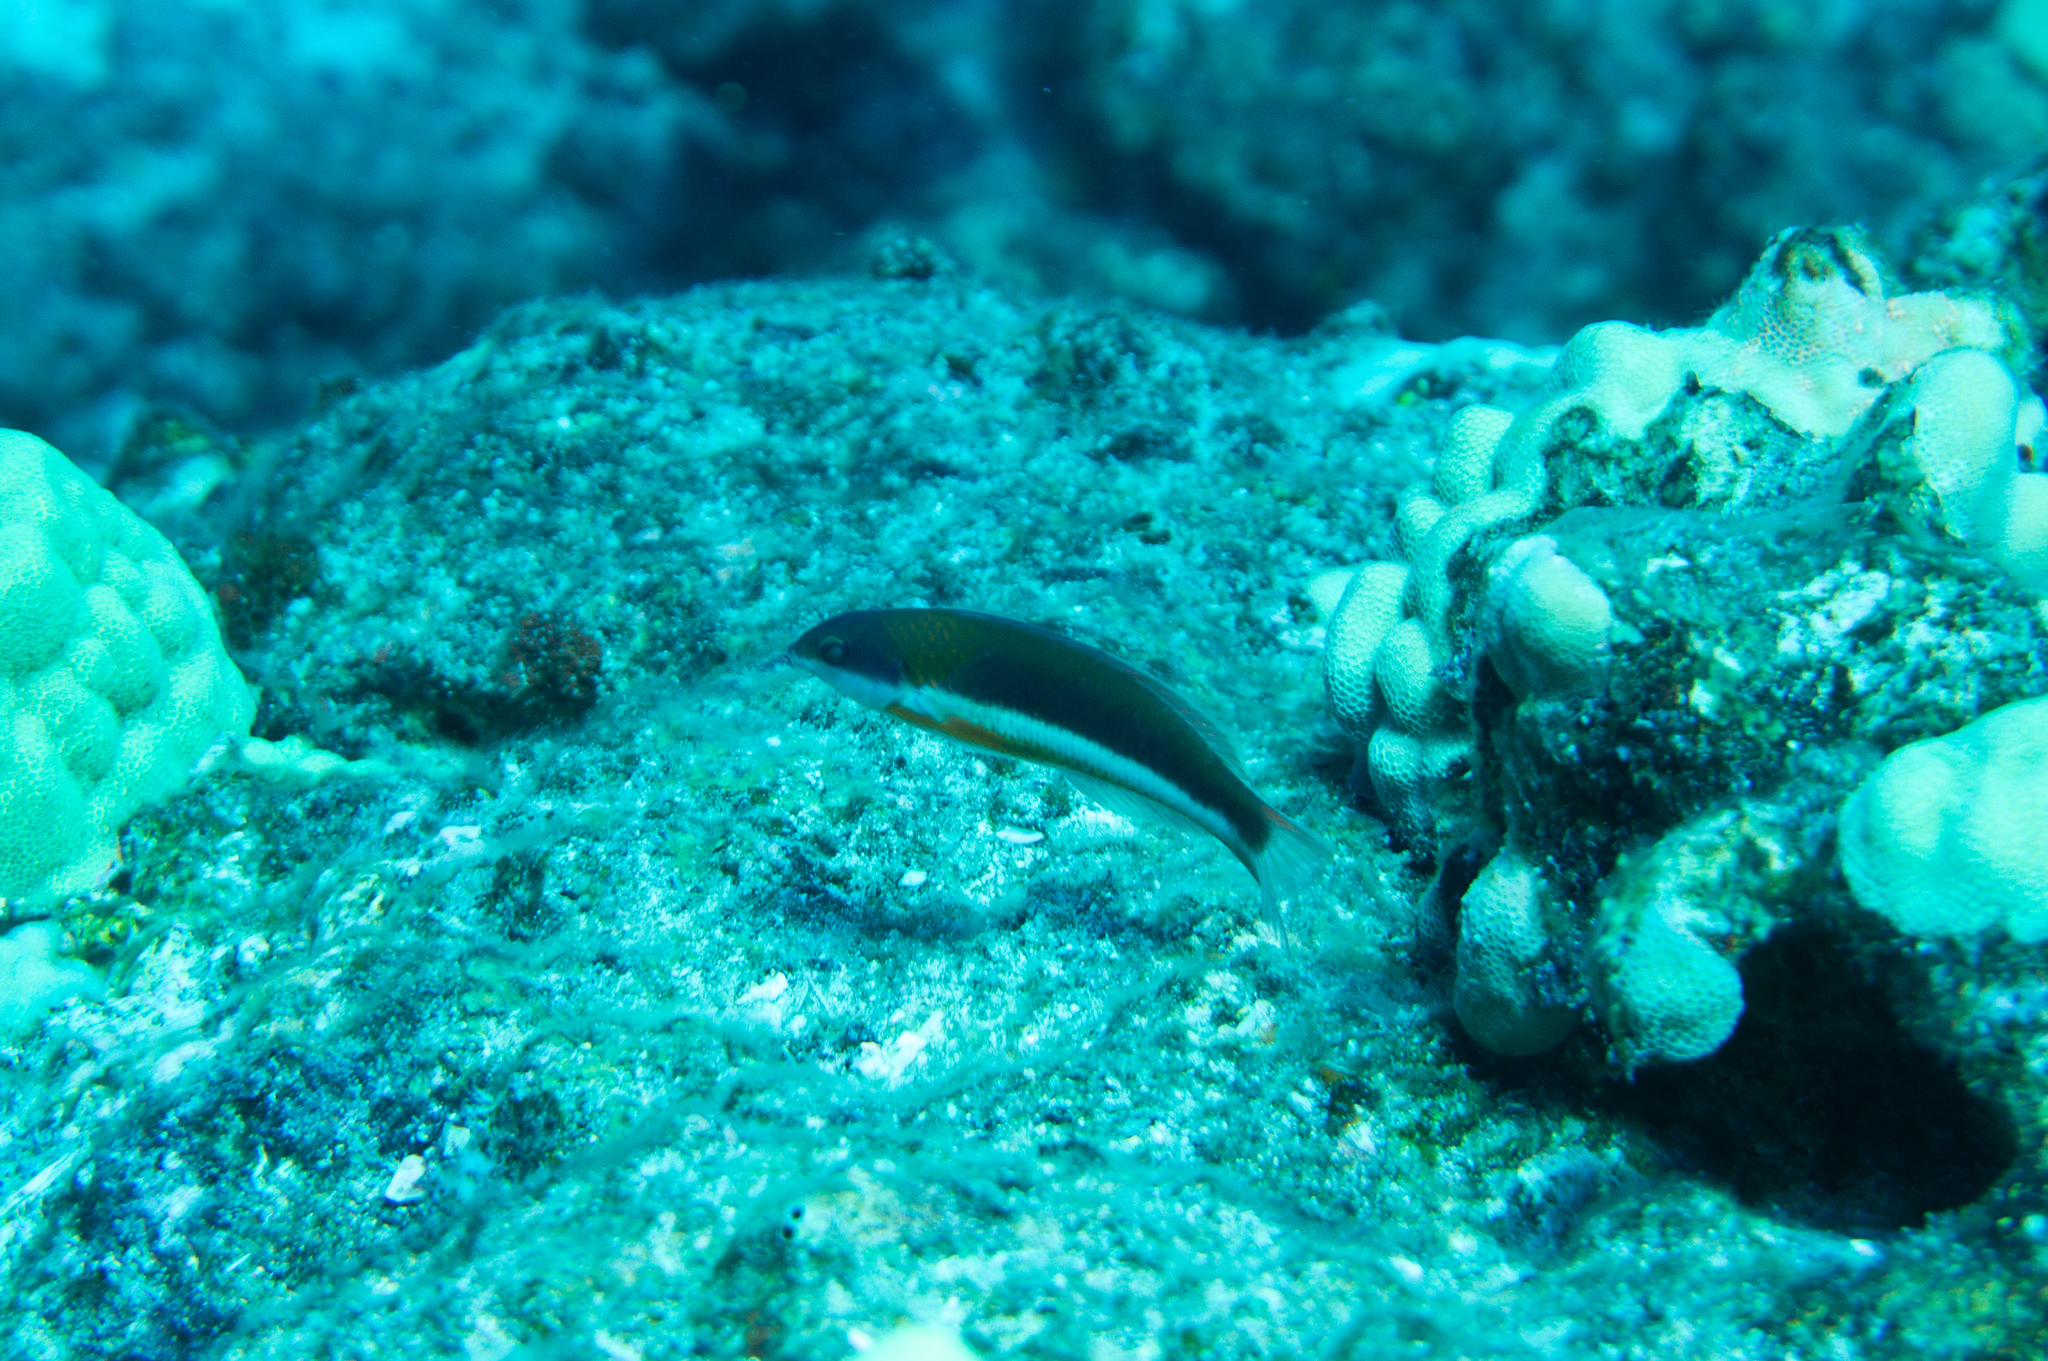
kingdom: Animalia
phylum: Chordata
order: Perciformes
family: Labridae
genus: Thalassoma
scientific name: Thalassoma duperrey
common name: Saddle wrasse
